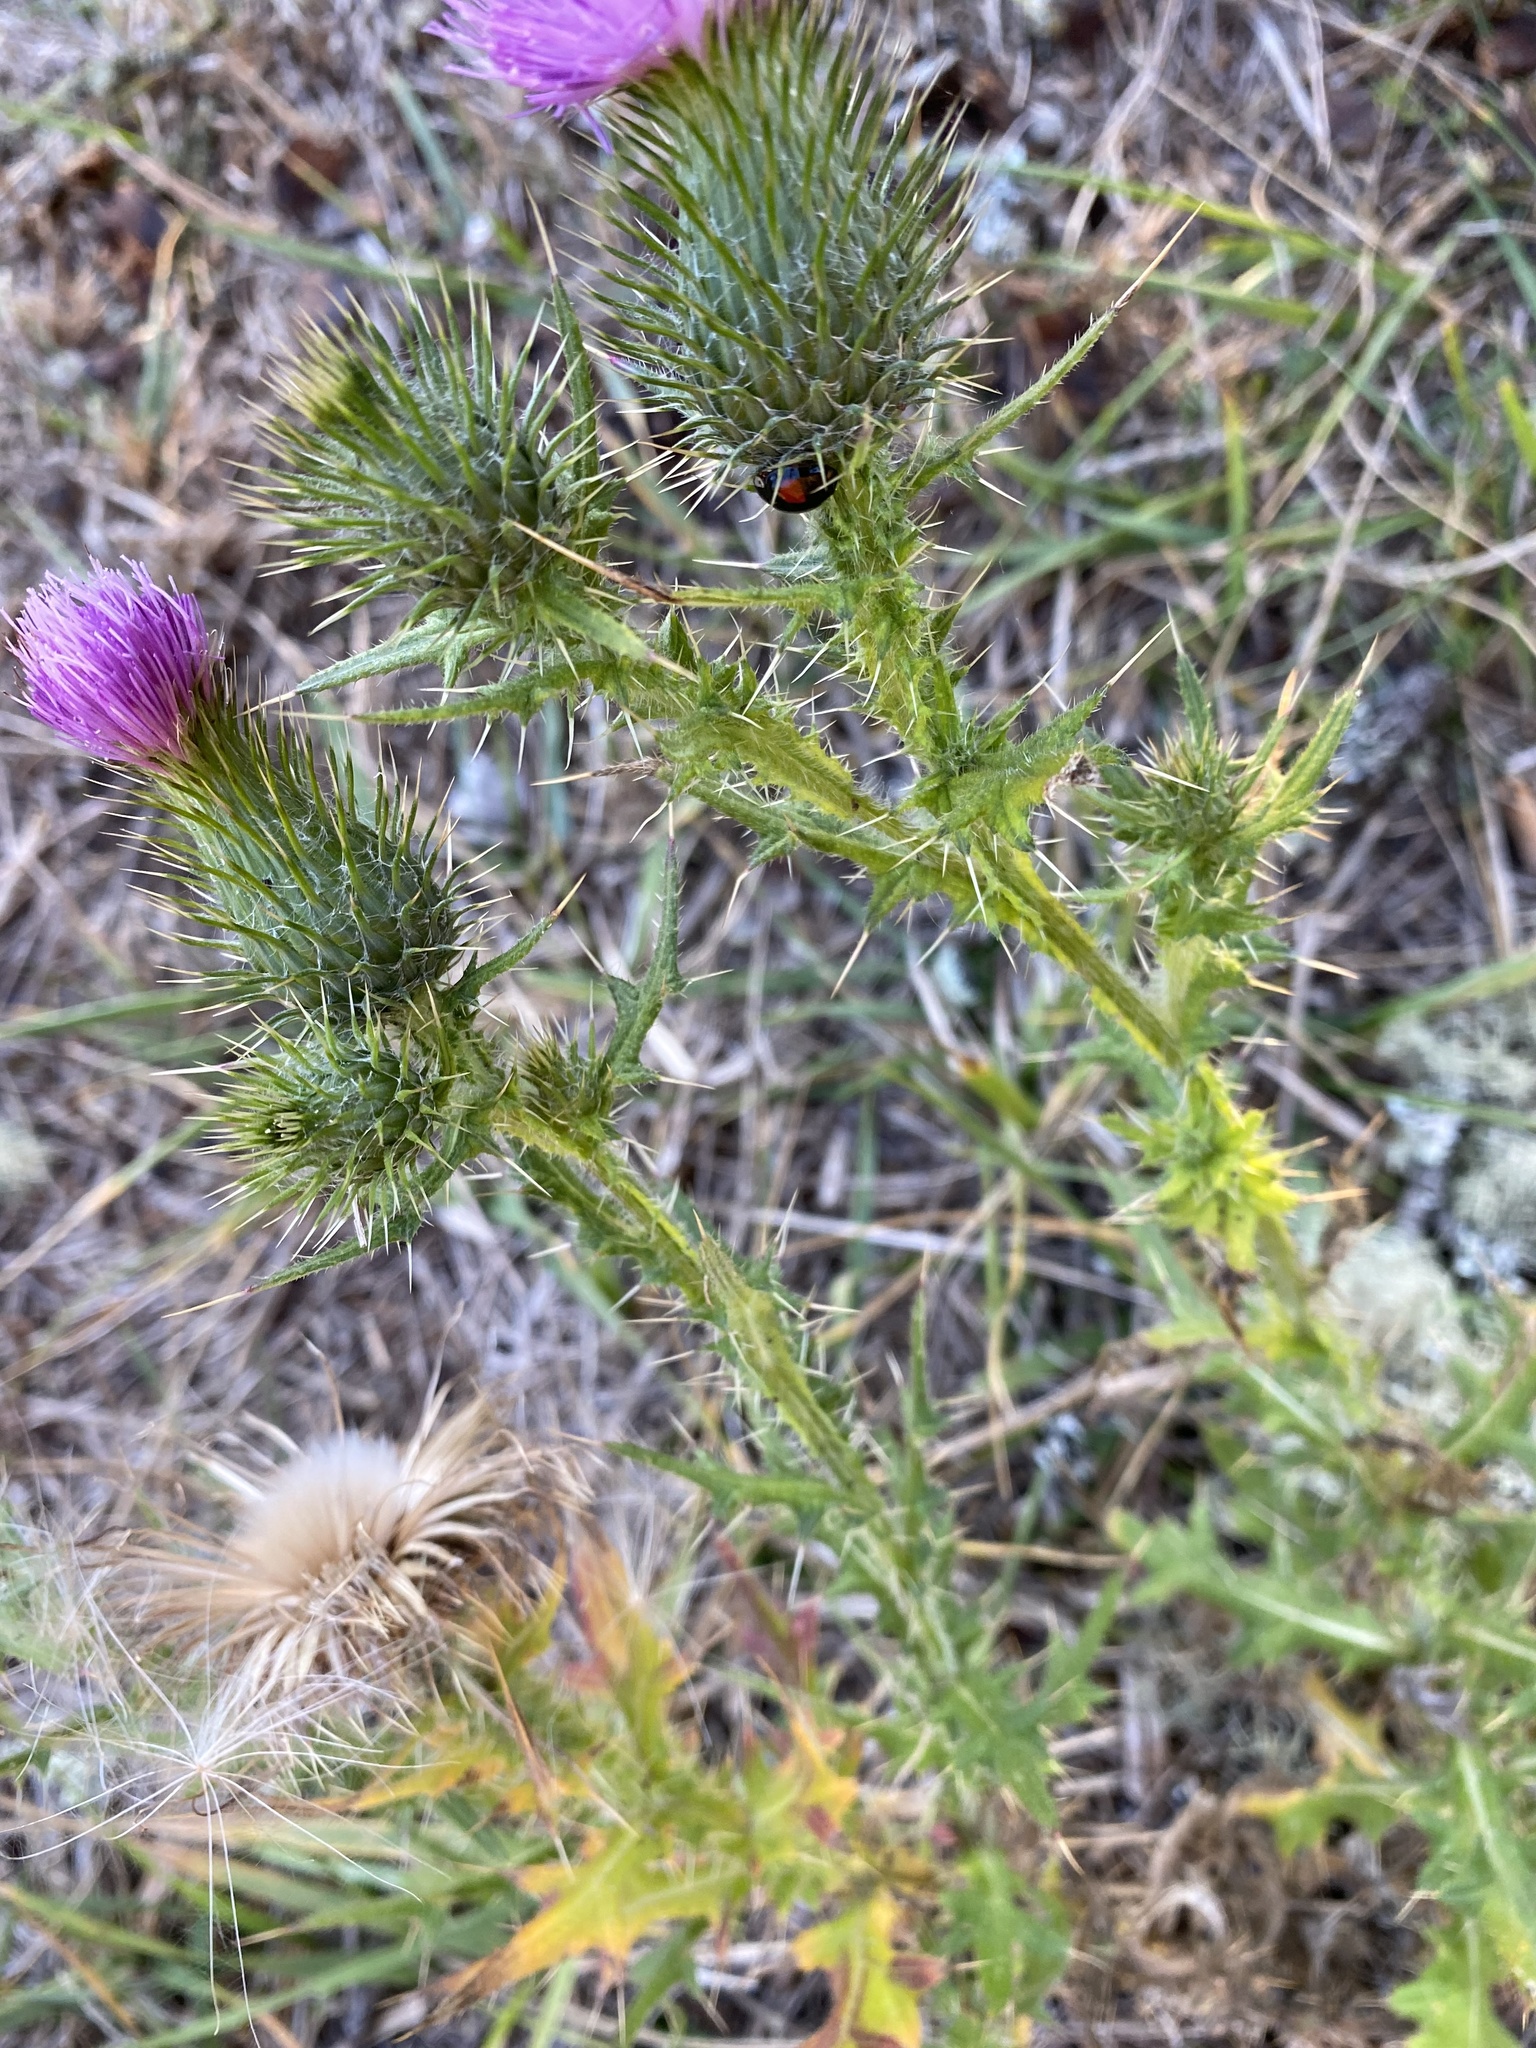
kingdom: Plantae
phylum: Tracheophyta
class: Magnoliopsida
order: Asterales
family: Asteraceae
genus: Cirsium
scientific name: Cirsium vulgare
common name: Bull thistle
